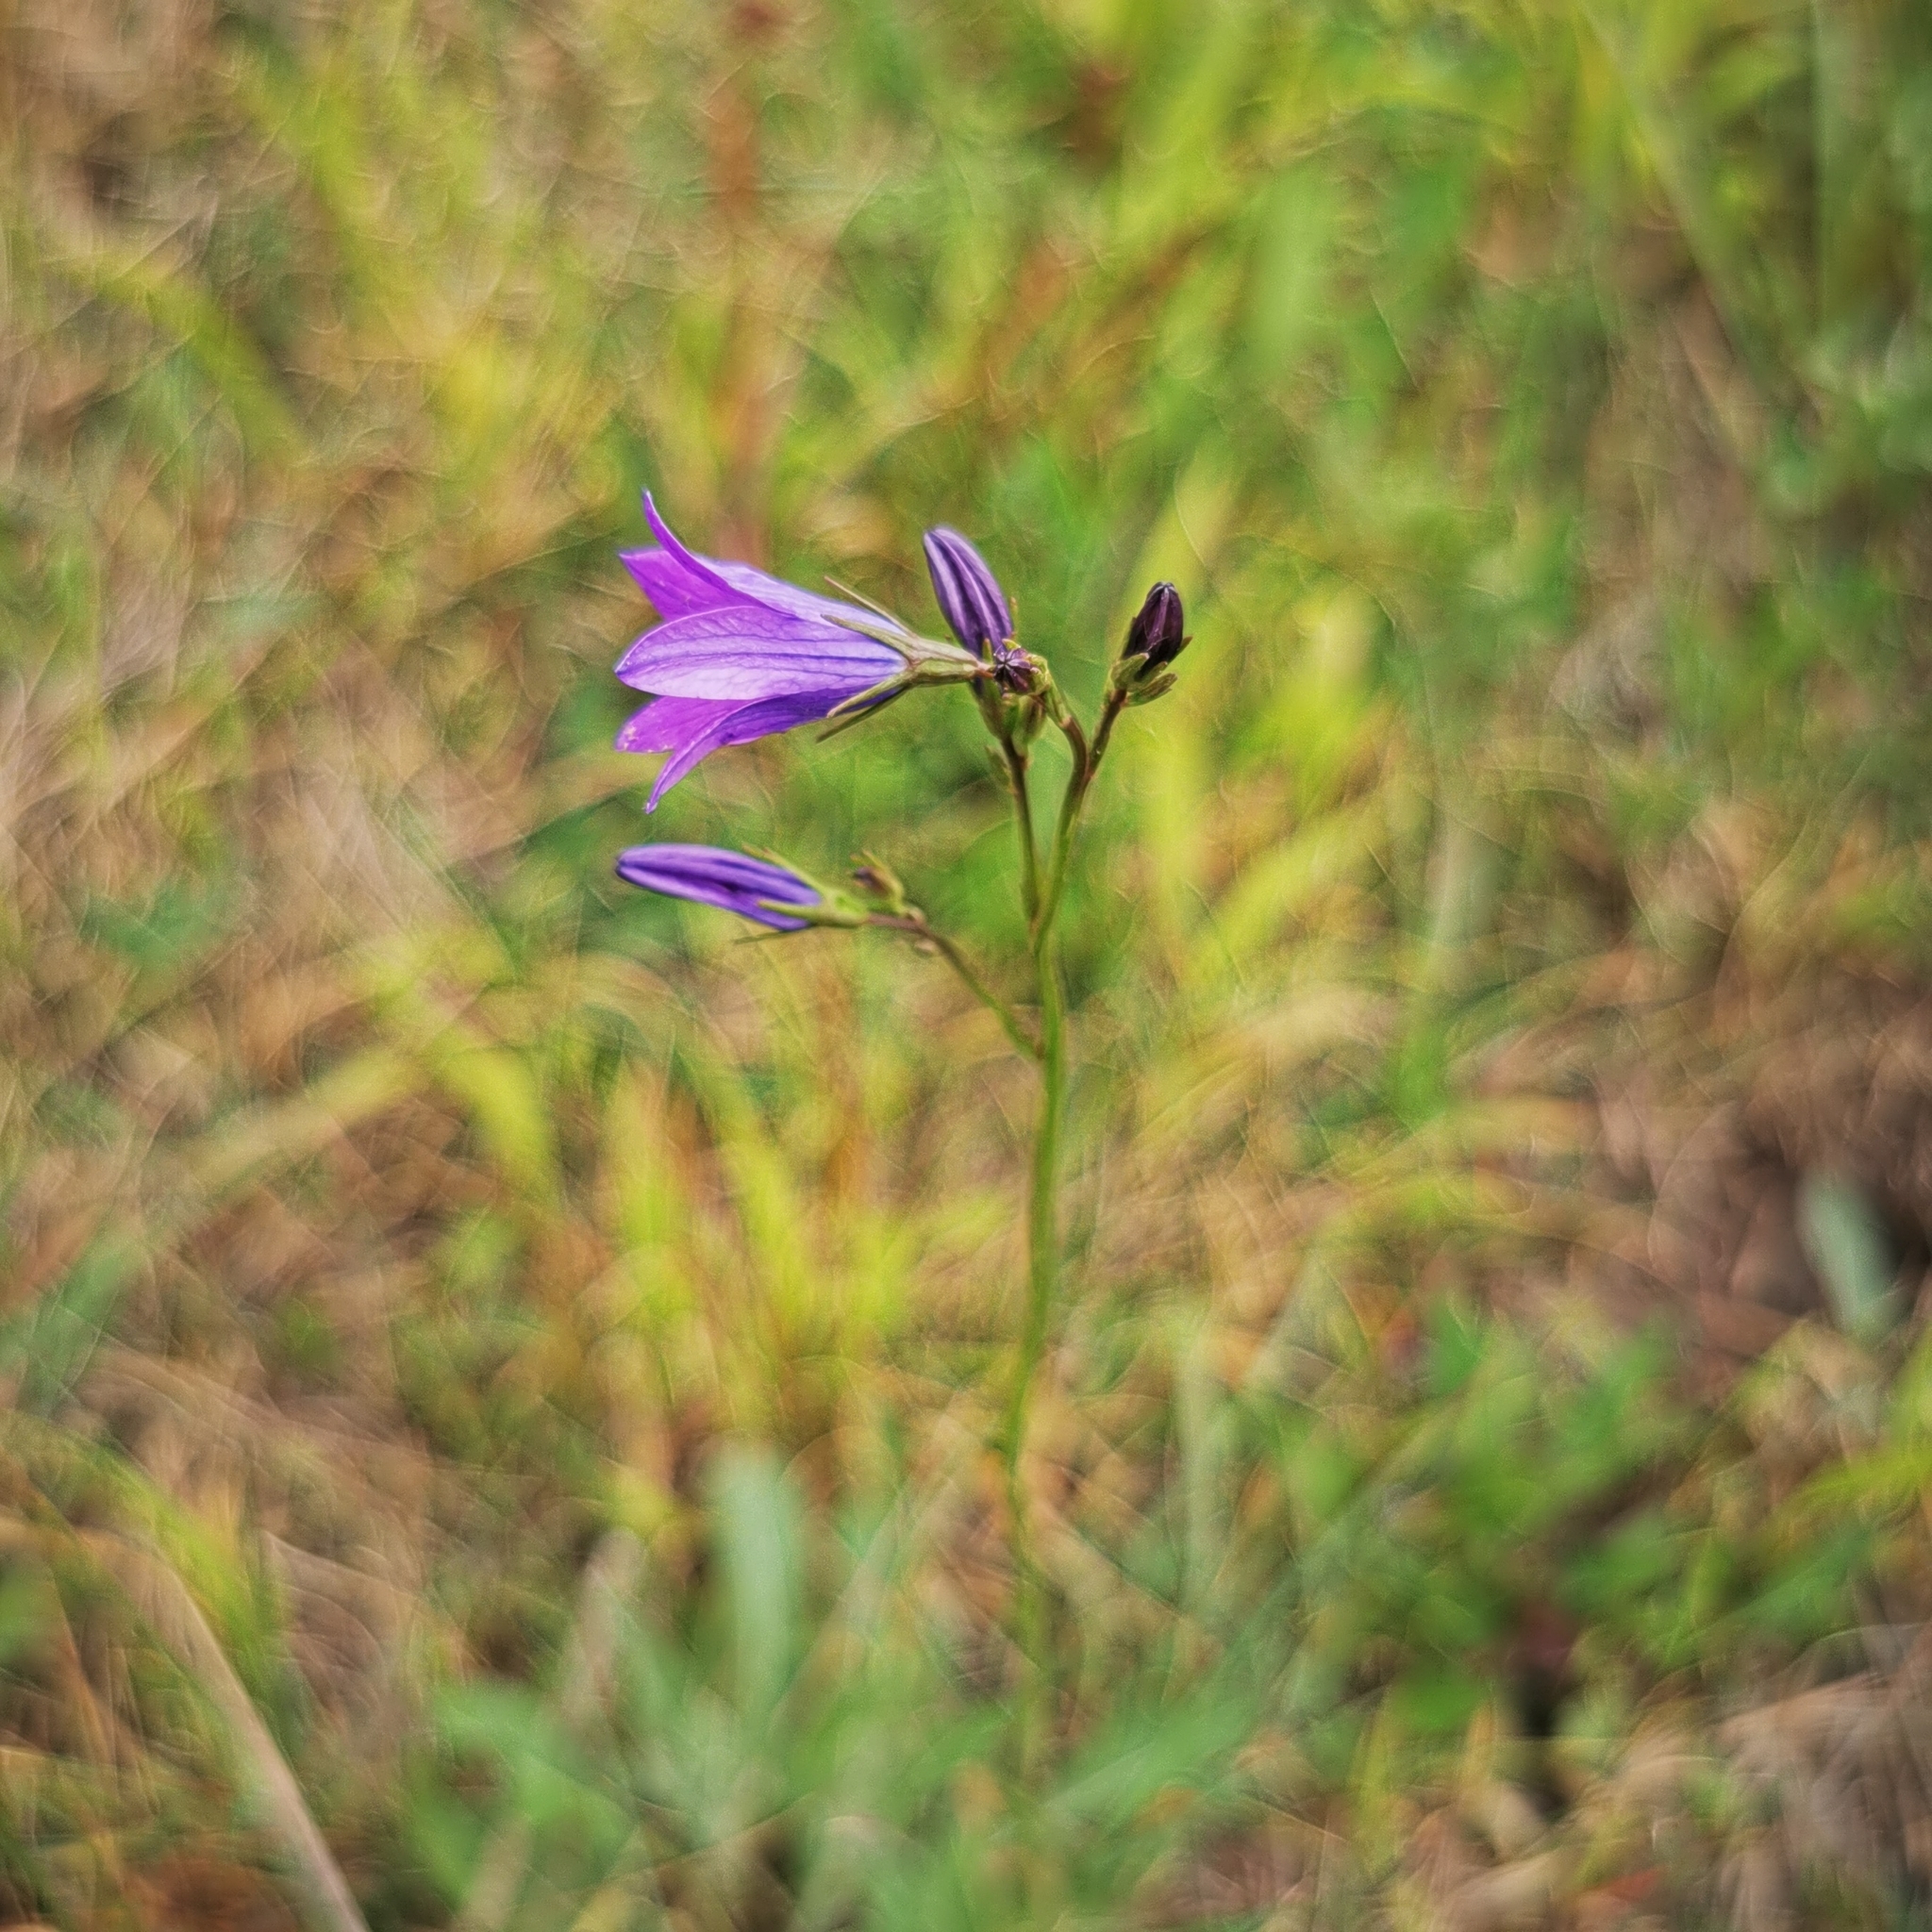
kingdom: Plantae
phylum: Tracheophyta
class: Magnoliopsida
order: Asterales
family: Campanulaceae
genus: Campanula
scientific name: Campanula patula
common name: Spreading bellflower
